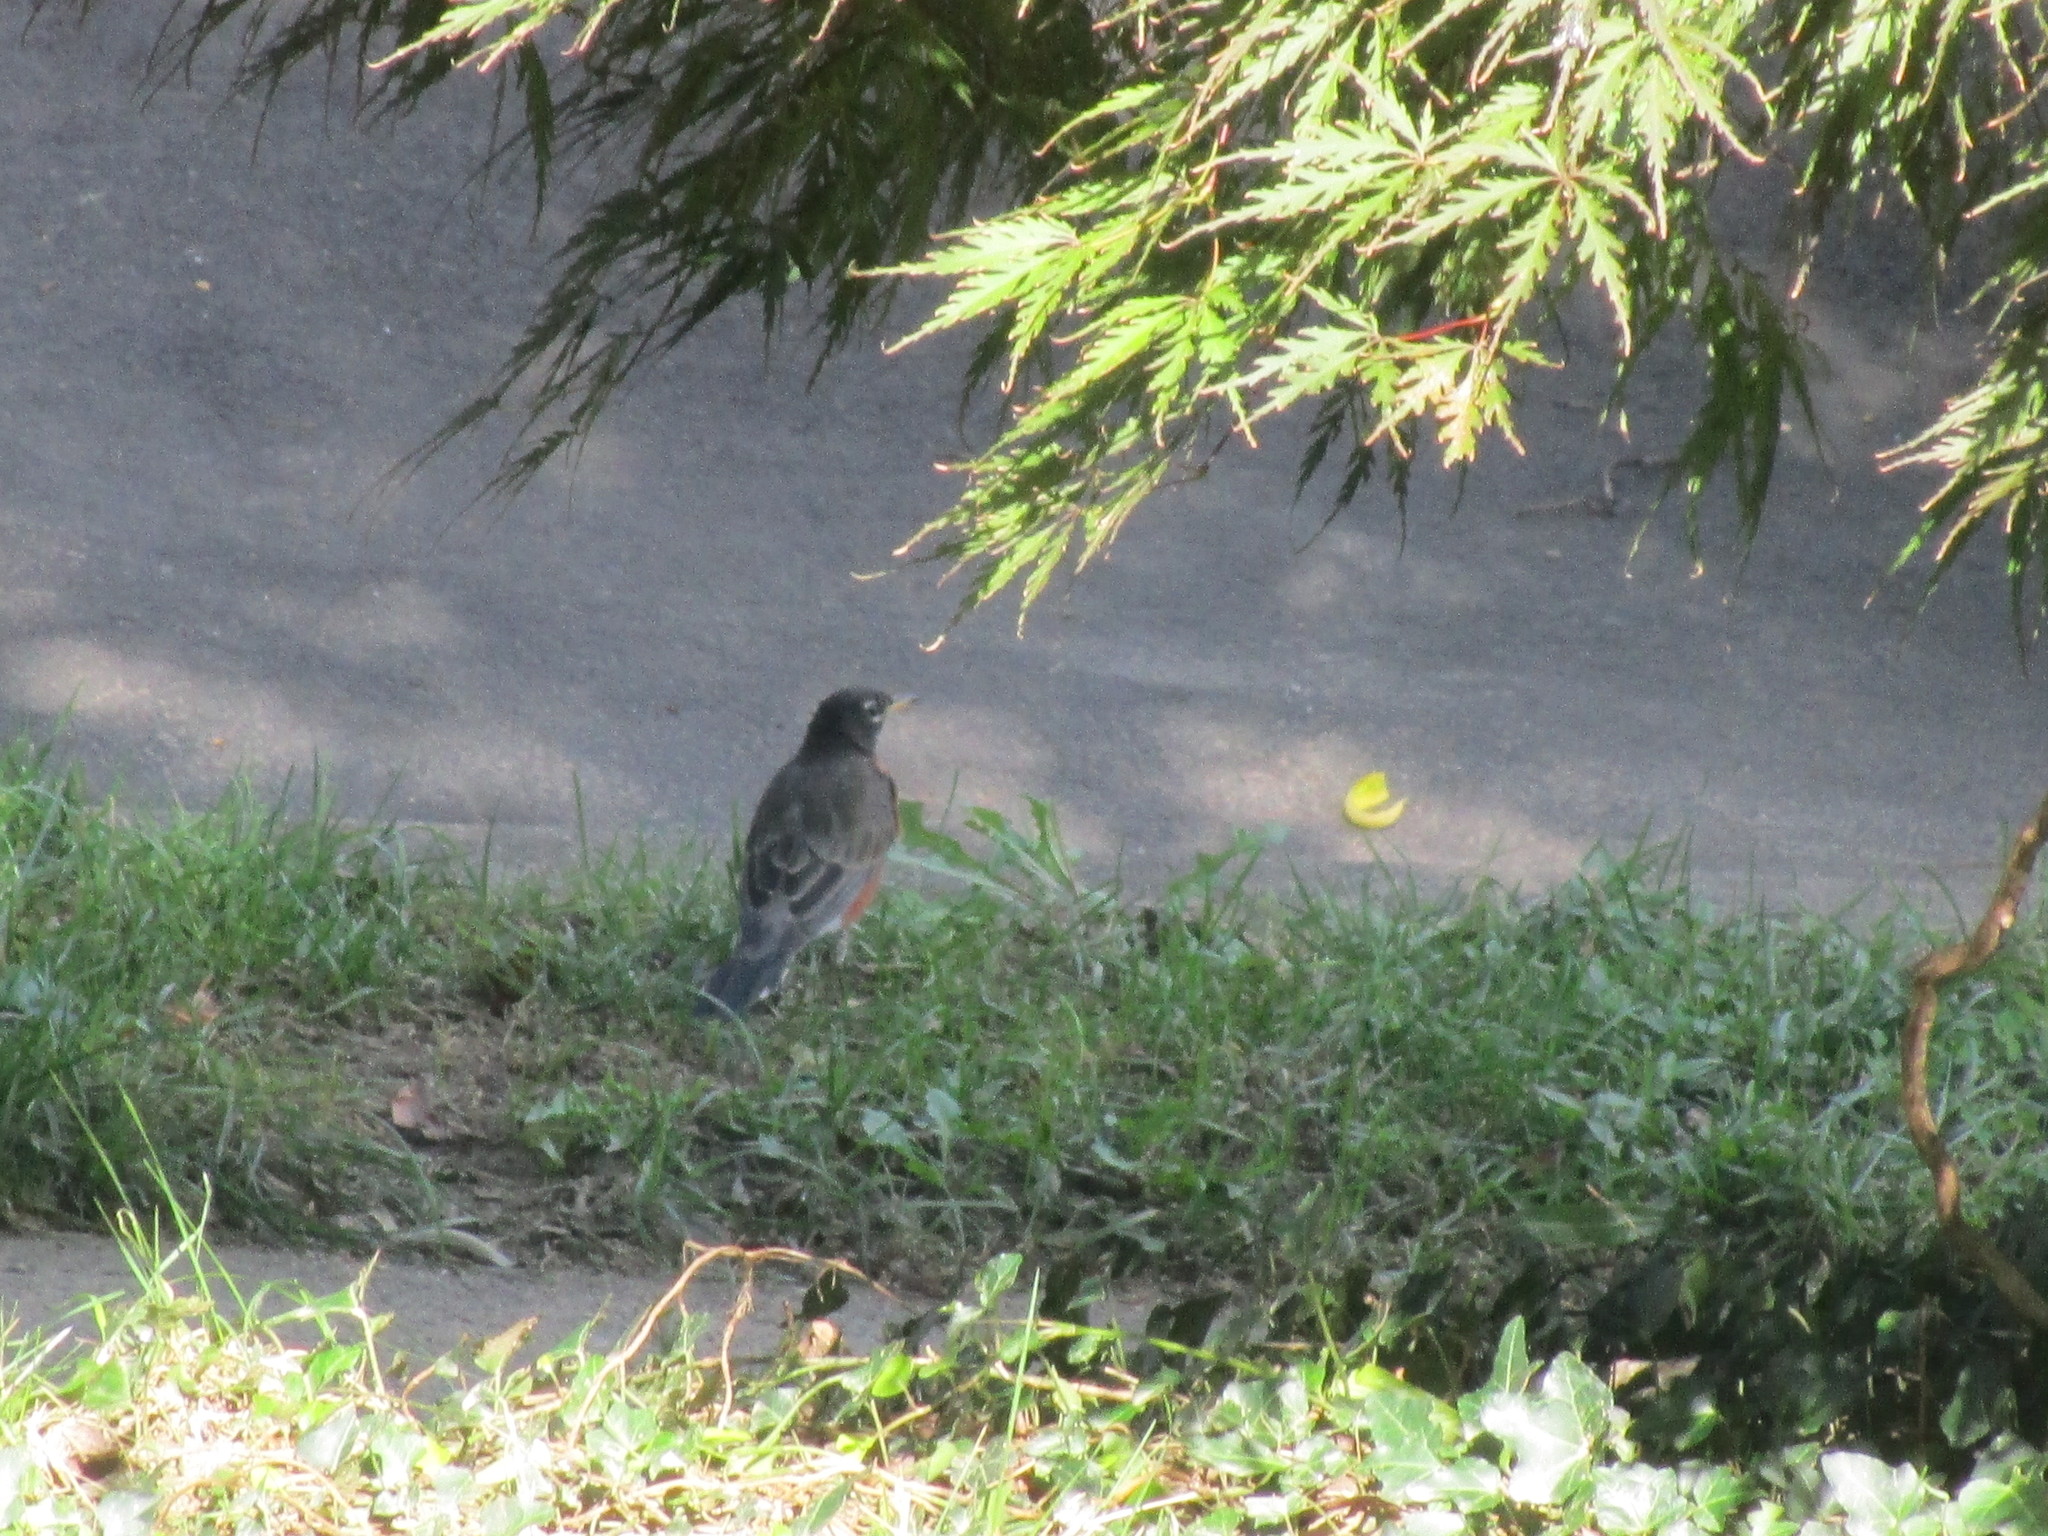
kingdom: Animalia
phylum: Chordata
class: Aves
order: Passeriformes
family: Turdidae
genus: Turdus
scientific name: Turdus migratorius
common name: American robin
